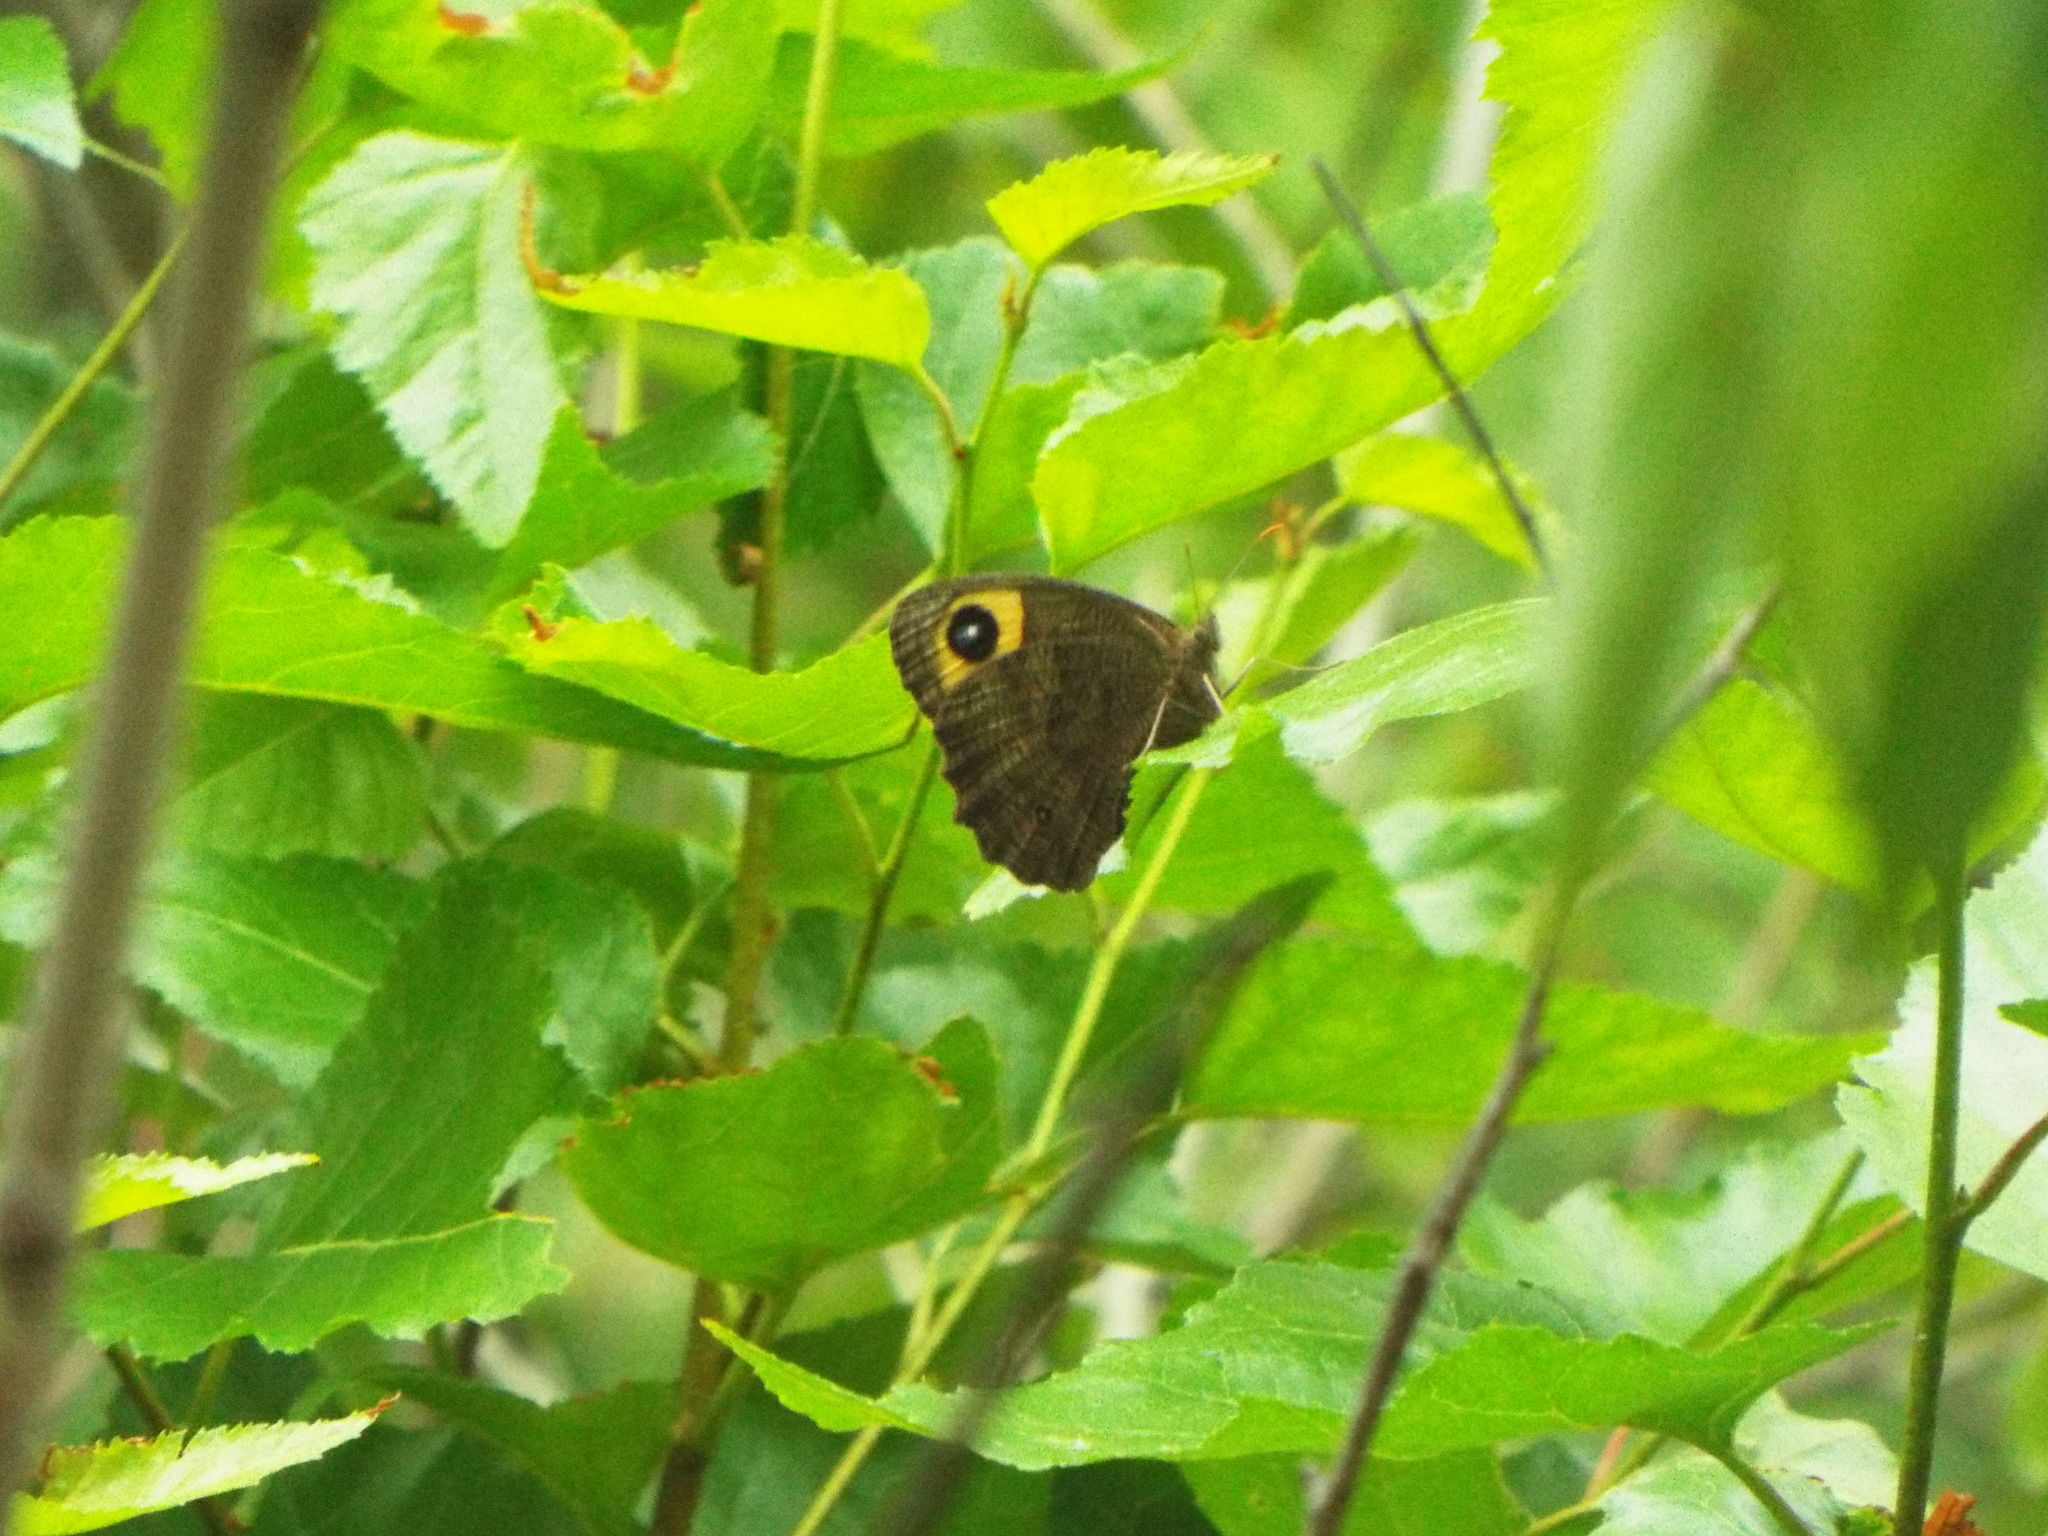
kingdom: Animalia
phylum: Arthropoda
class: Insecta
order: Lepidoptera
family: Nymphalidae
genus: Cercyonis
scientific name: Cercyonis pegala
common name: Common wood-nymph
